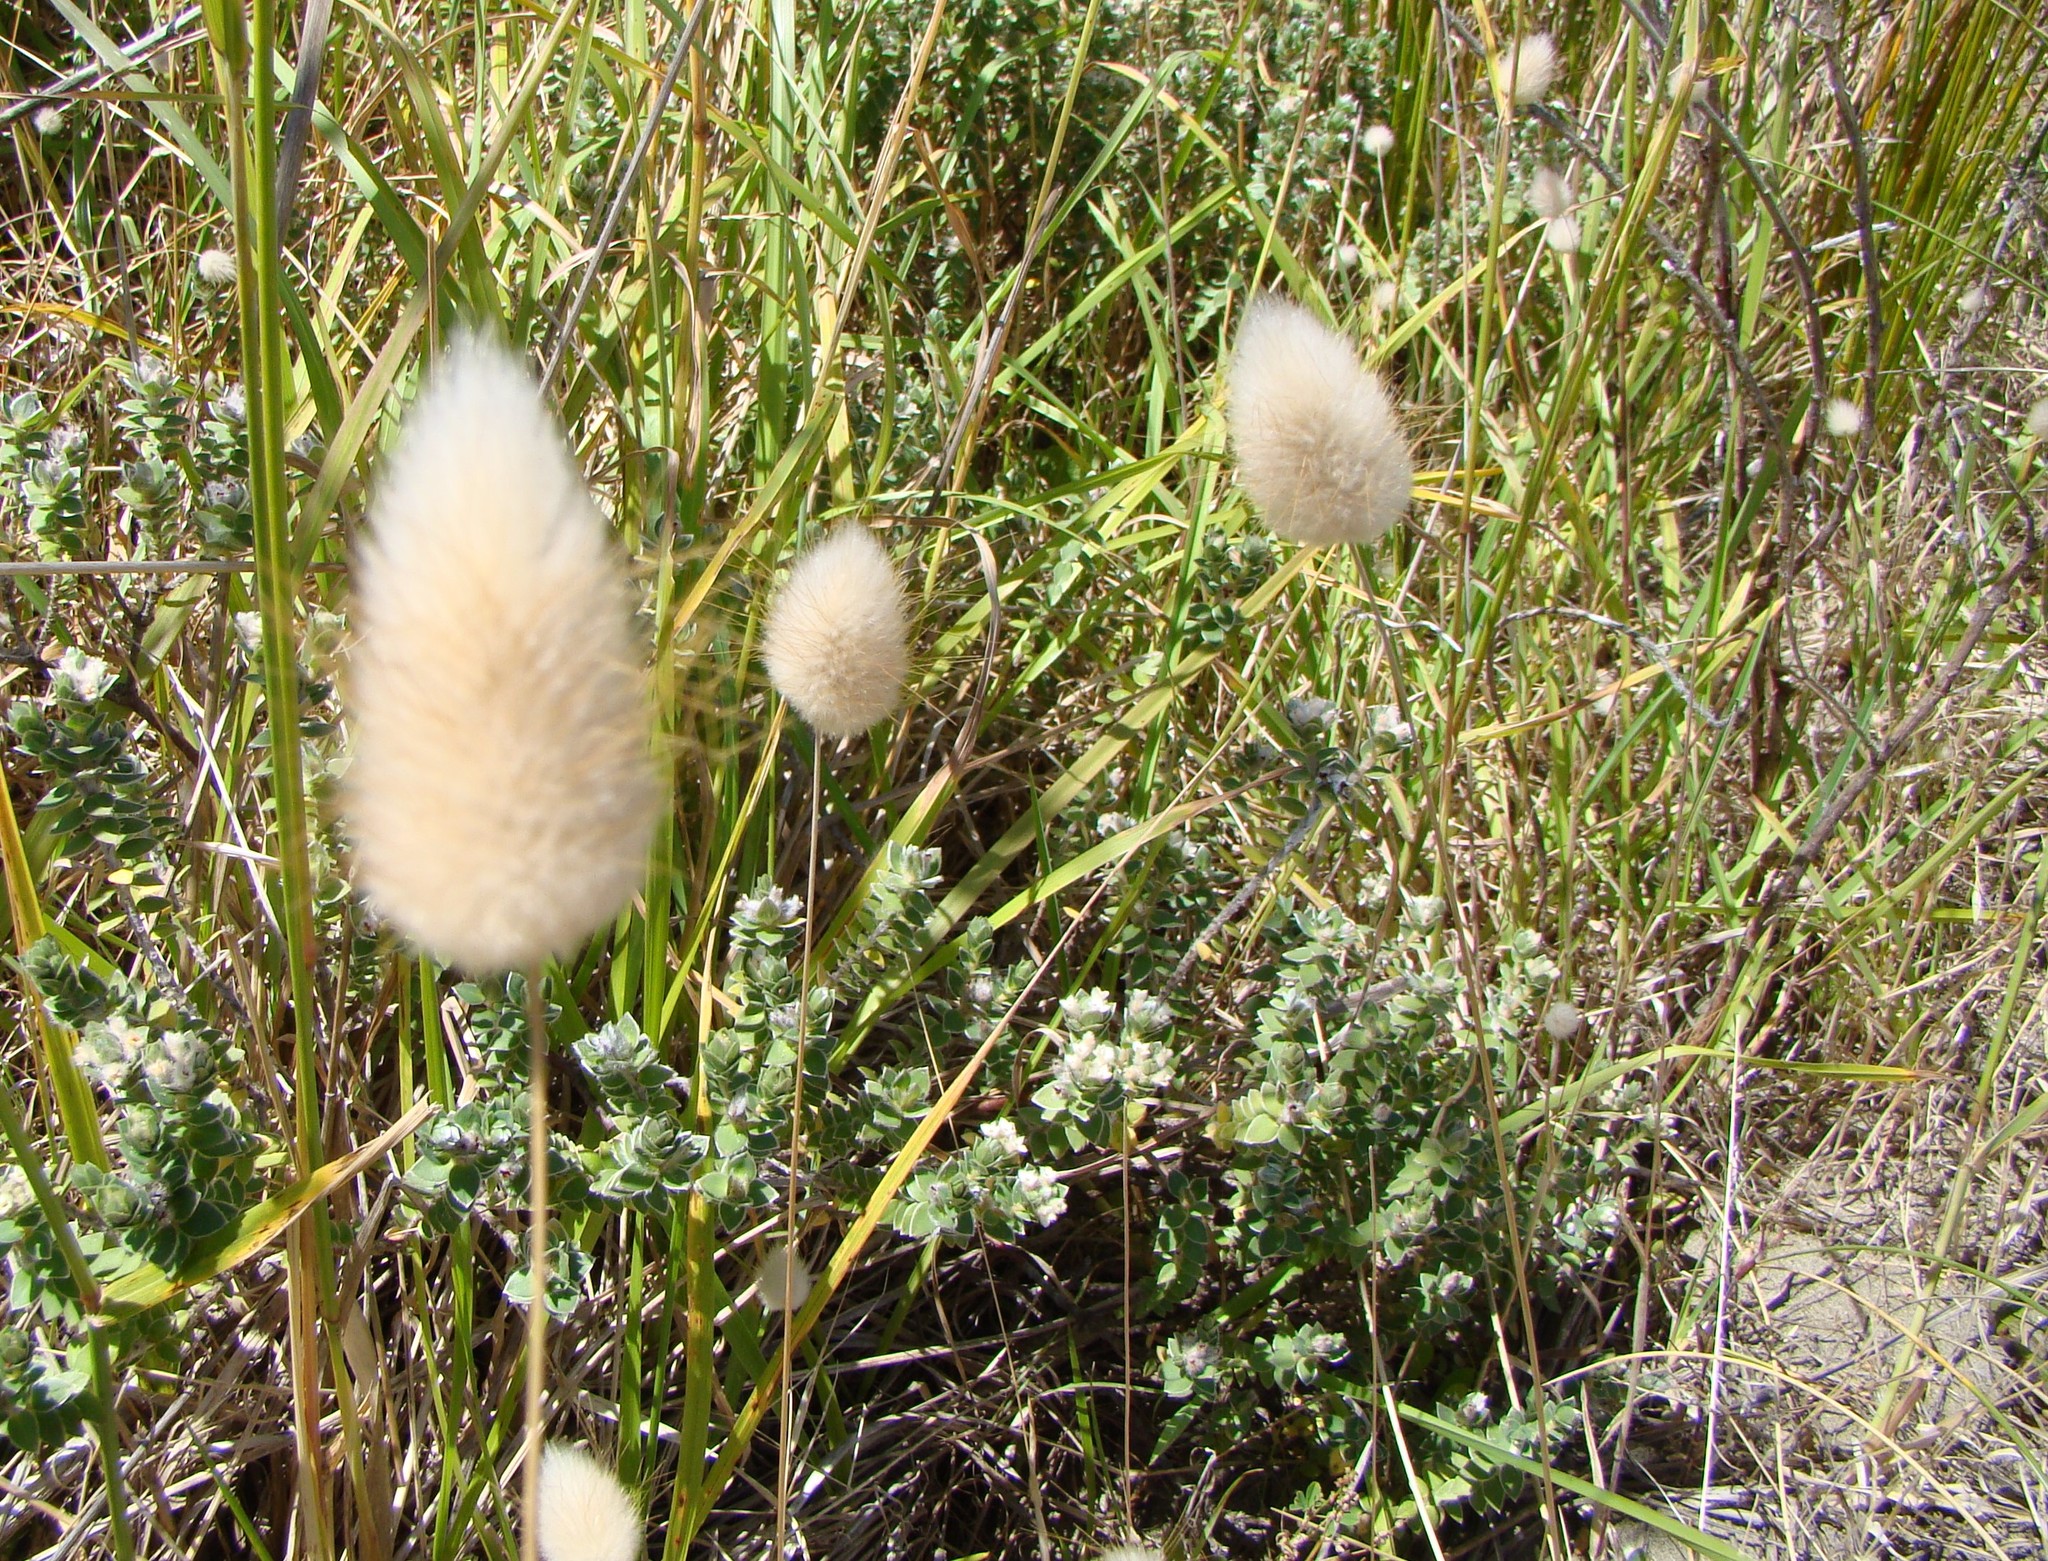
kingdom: Plantae
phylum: Tracheophyta
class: Liliopsida
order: Poales
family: Poaceae
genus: Lagurus
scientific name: Lagurus ovatus
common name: Hare's-tail
